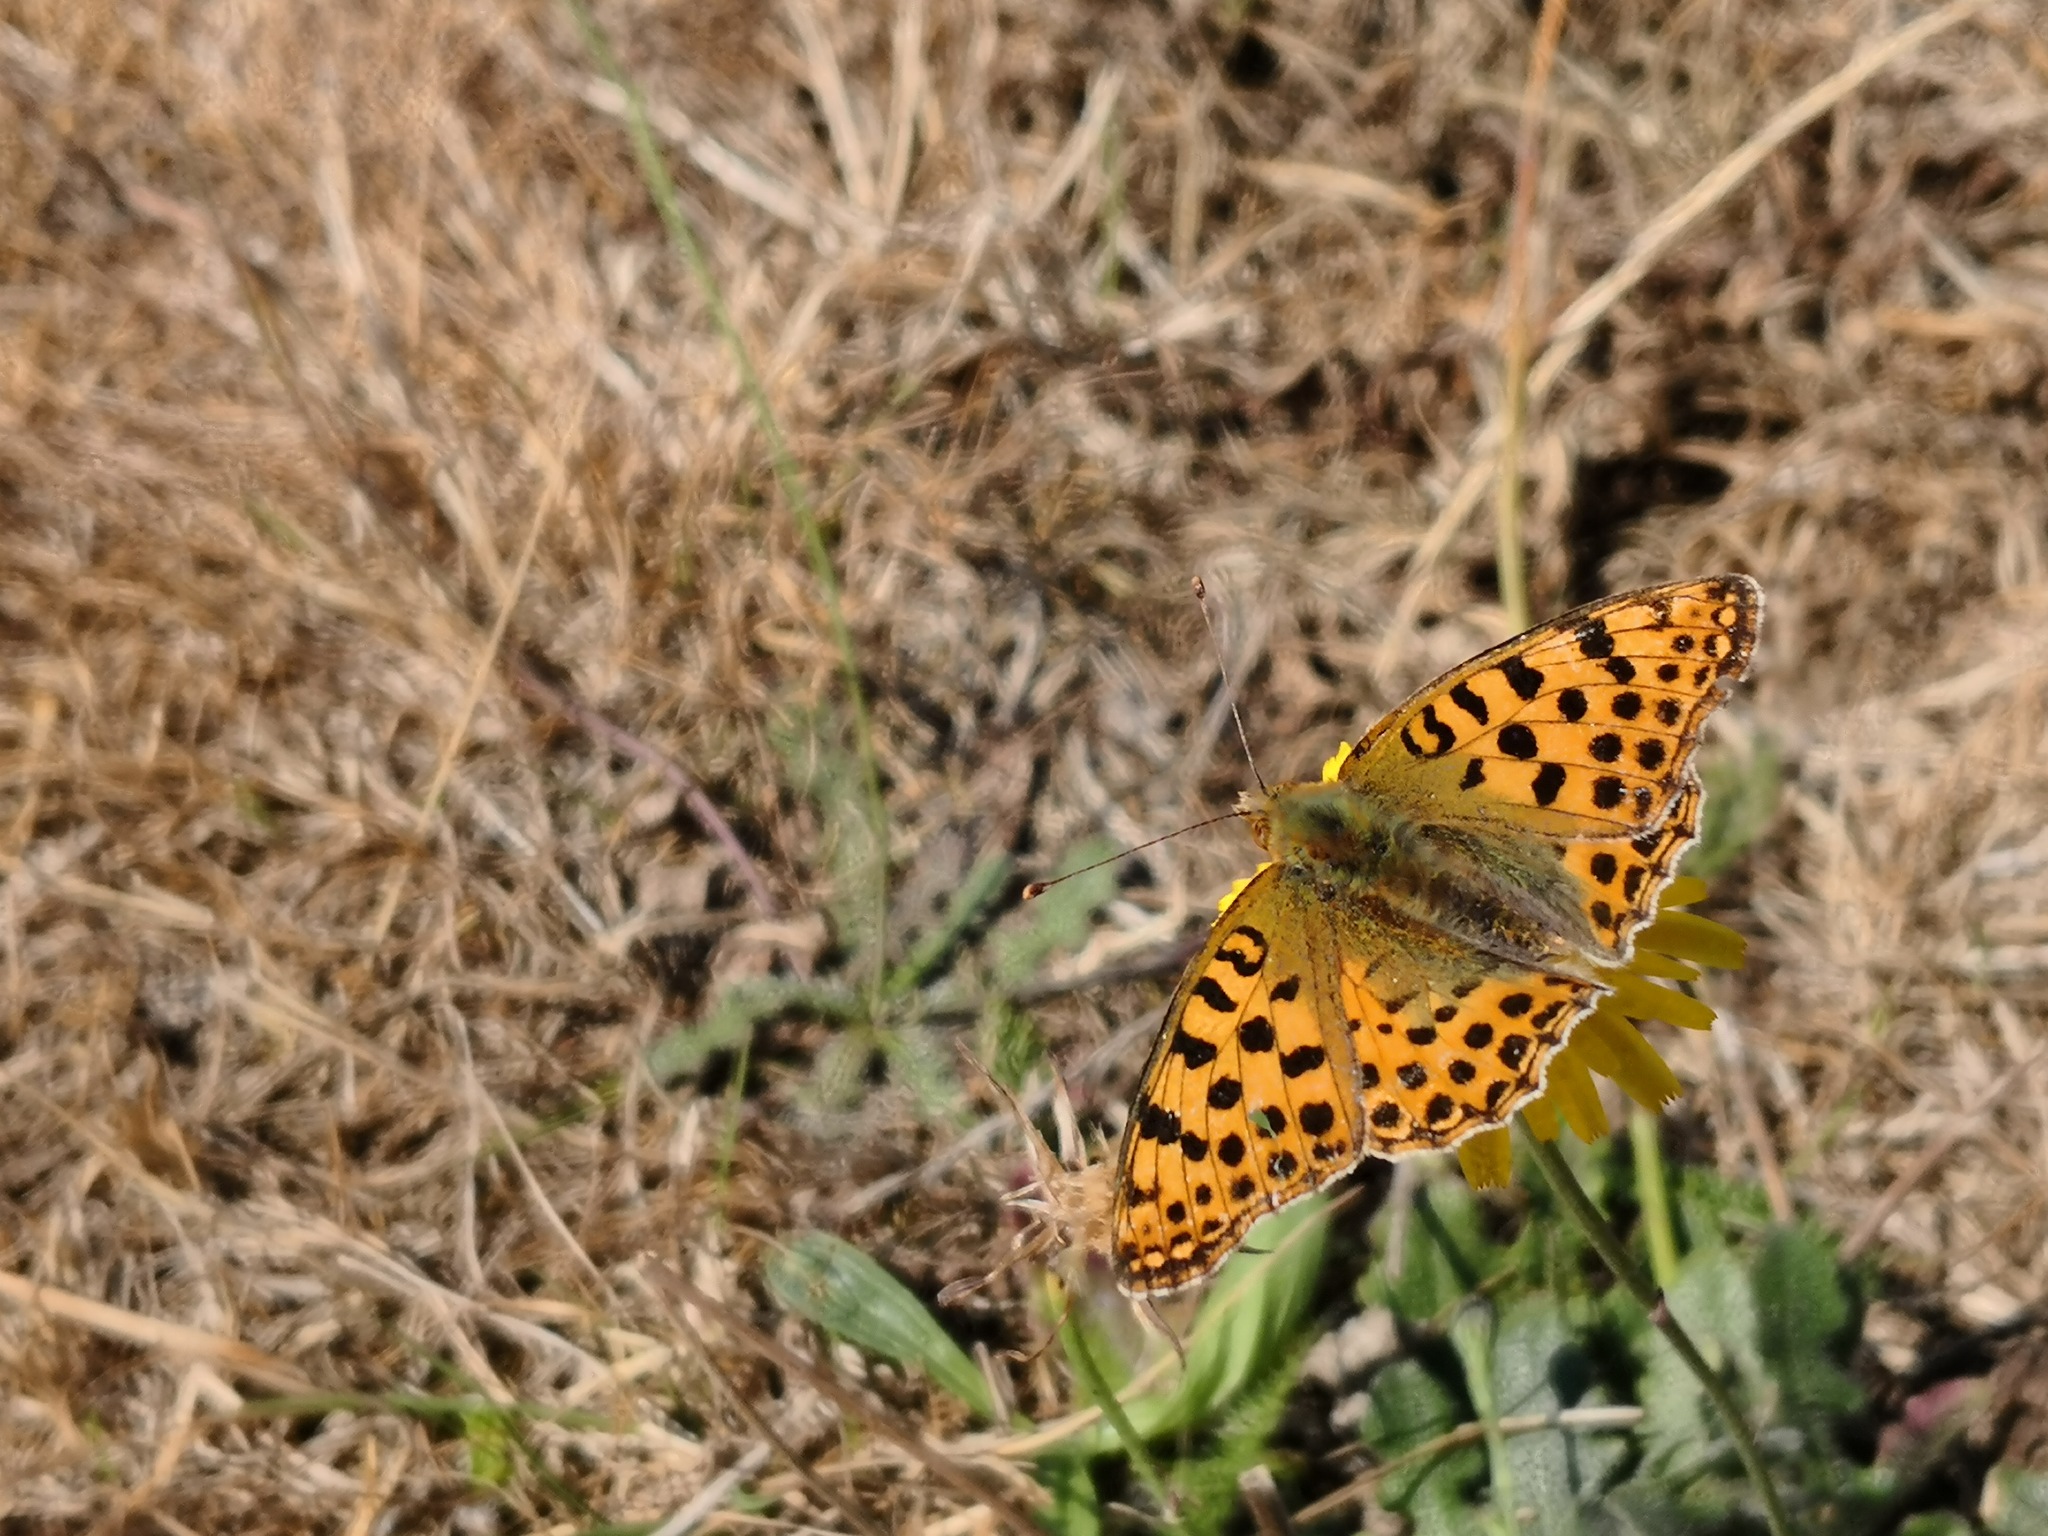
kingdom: Animalia
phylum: Arthropoda
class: Insecta
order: Lepidoptera
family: Nymphalidae
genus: Issoria
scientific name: Issoria lathonia
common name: Queen of spain fritillary
